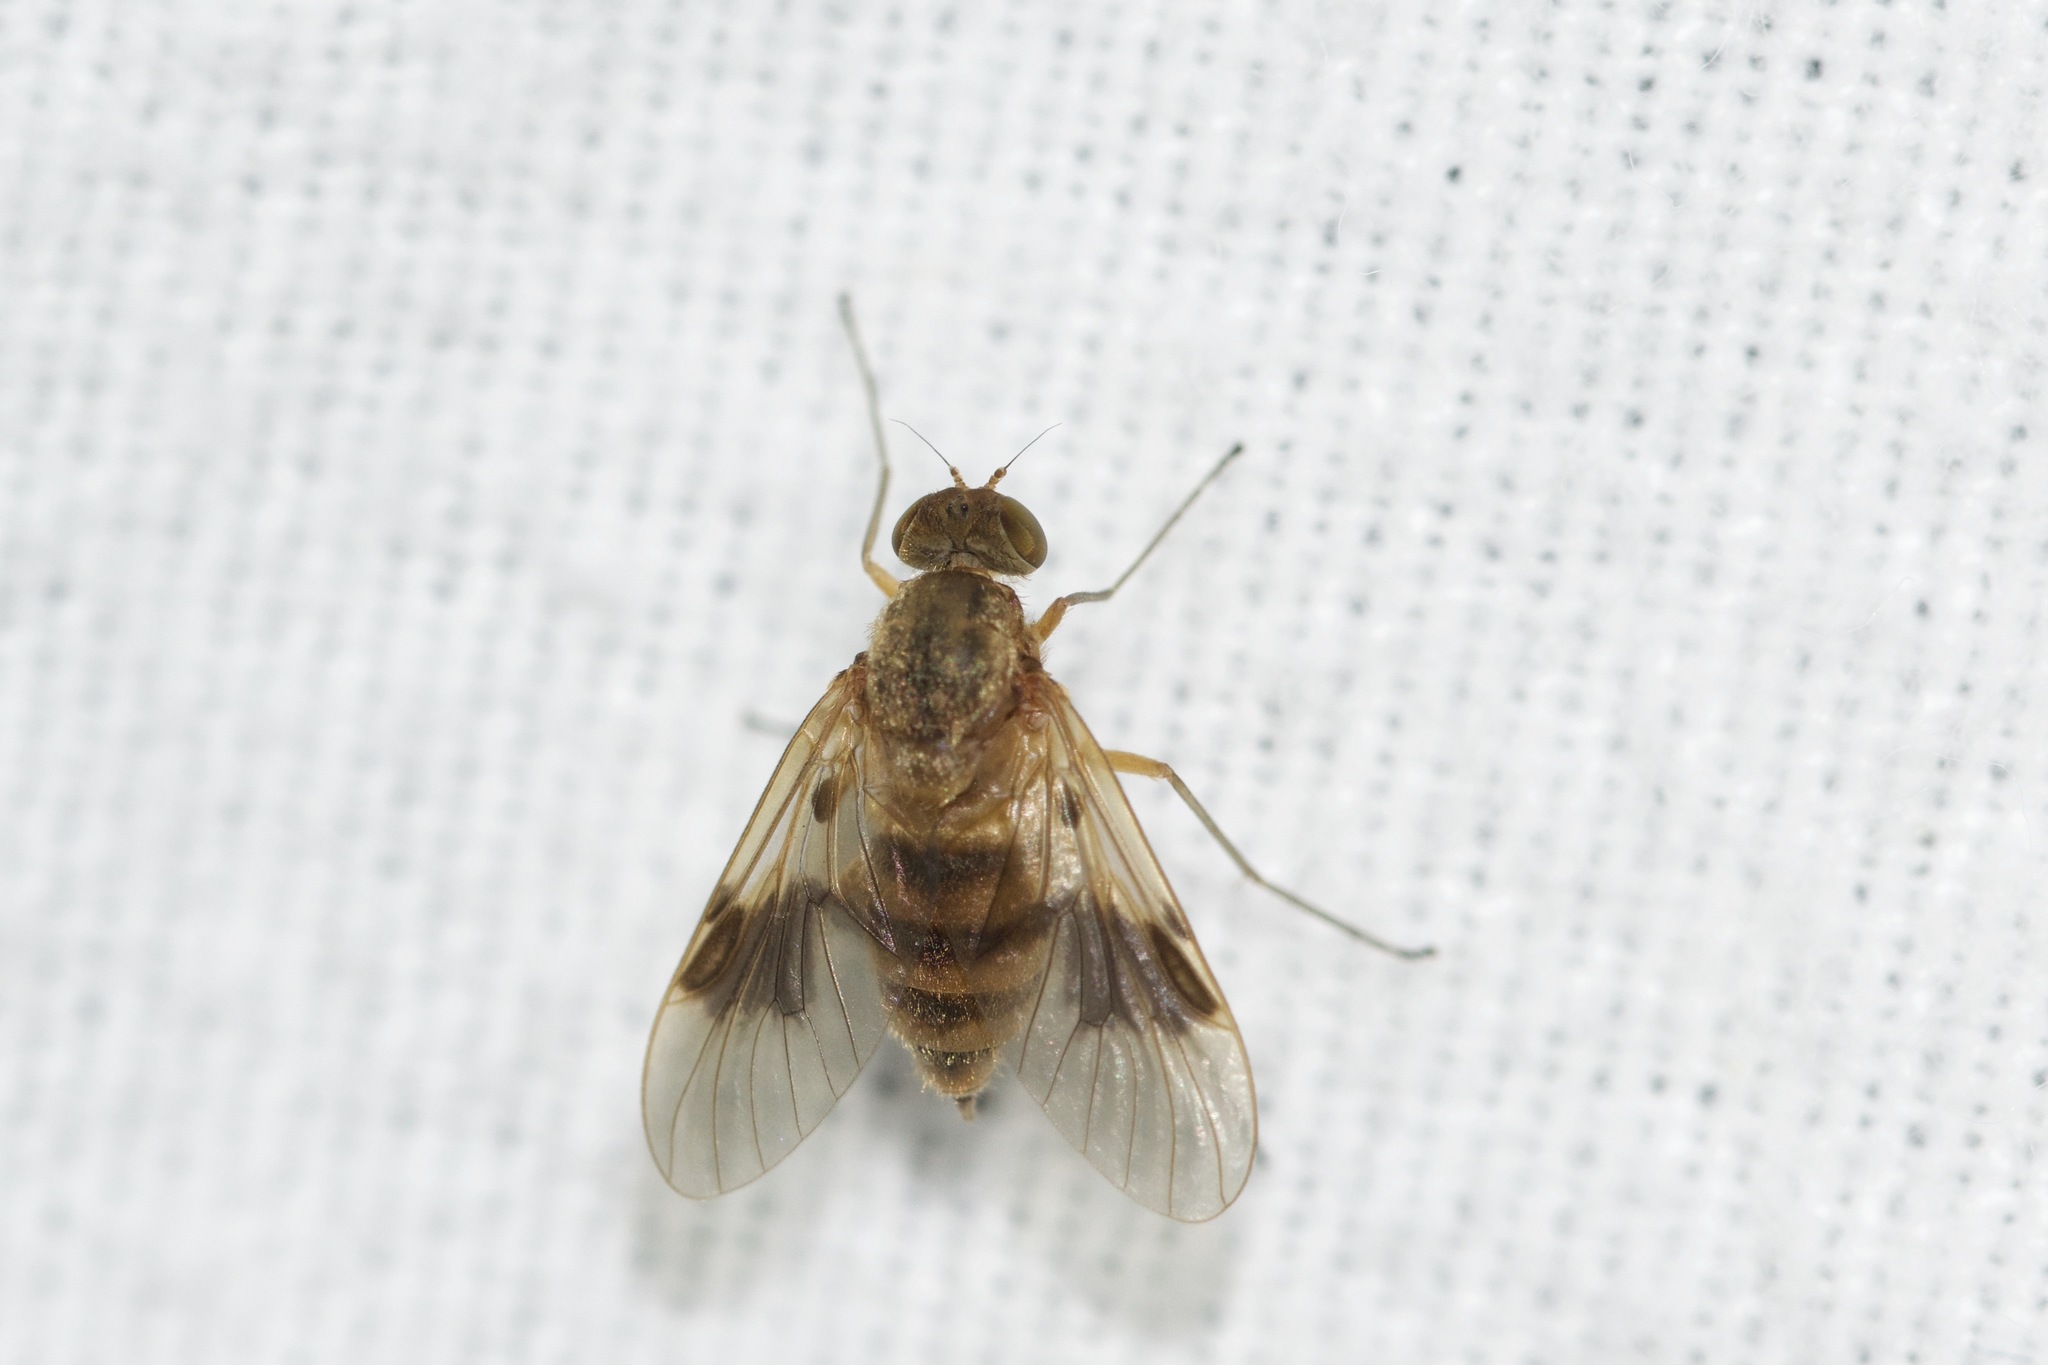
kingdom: Animalia
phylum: Arthropoda
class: Insecta
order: Diptera
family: Rhagionidae
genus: Chrysopilus
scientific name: Chrysopilus quadratus
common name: Quadrate snipe fly
